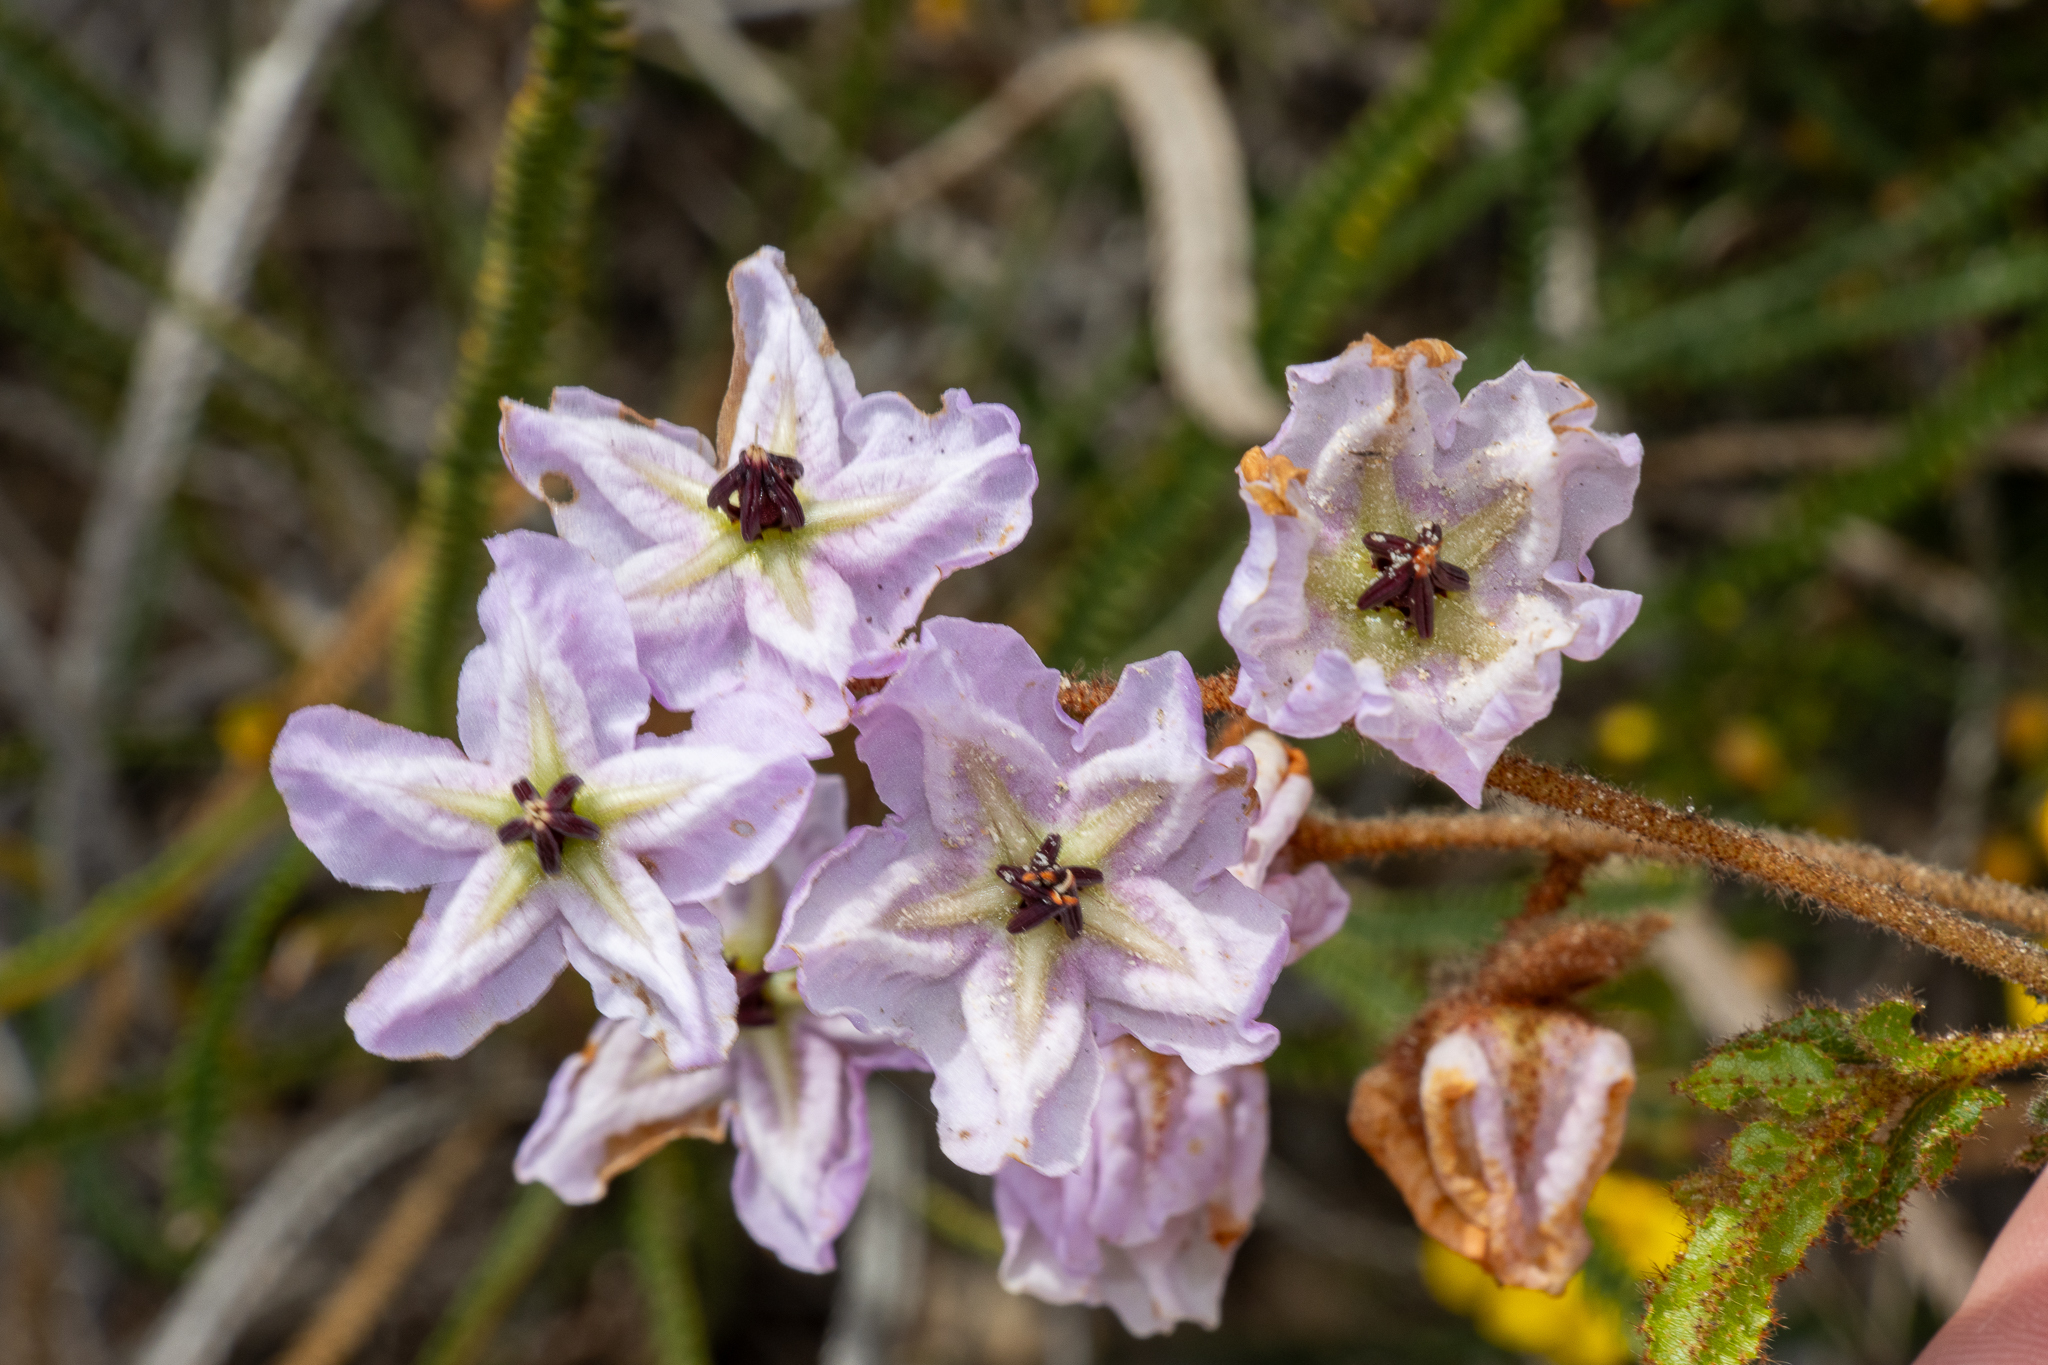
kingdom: Plantae
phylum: Tracheophyta
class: Magnoliopsida
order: Malvales
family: Malvaceae
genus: Thomasia
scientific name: Thomasia grandiflora
